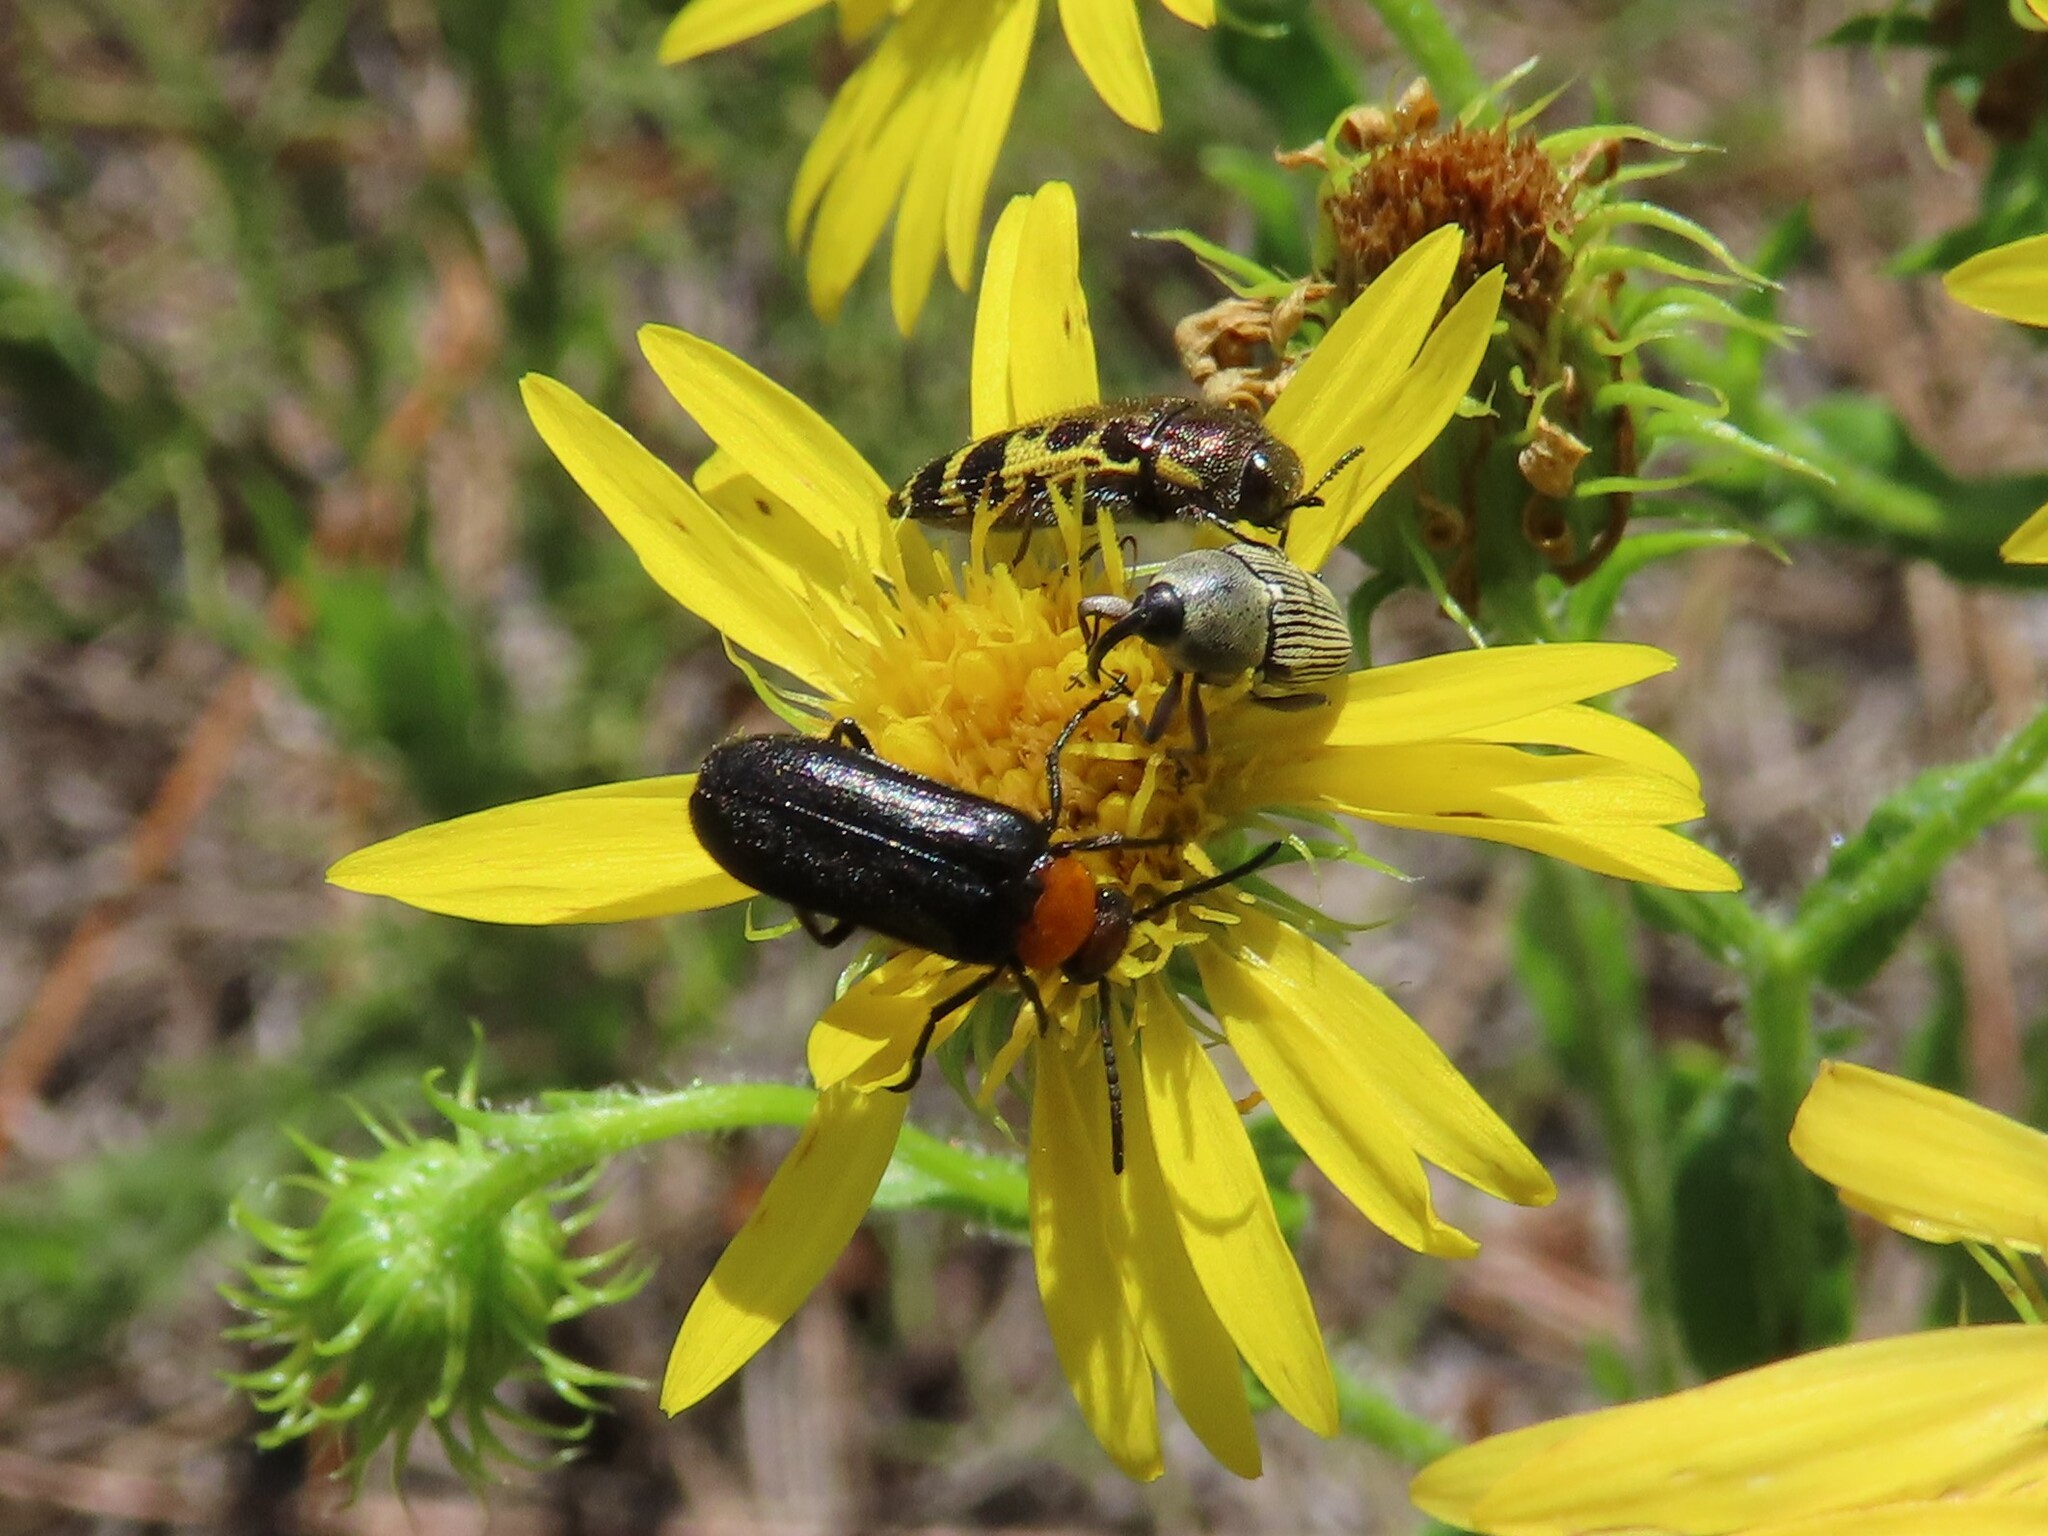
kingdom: Animalia
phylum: Arthropoda
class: Insecta
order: Coleoptera
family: Buprestidae
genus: Acmaeodera
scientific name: Acmaeodera pulchella
